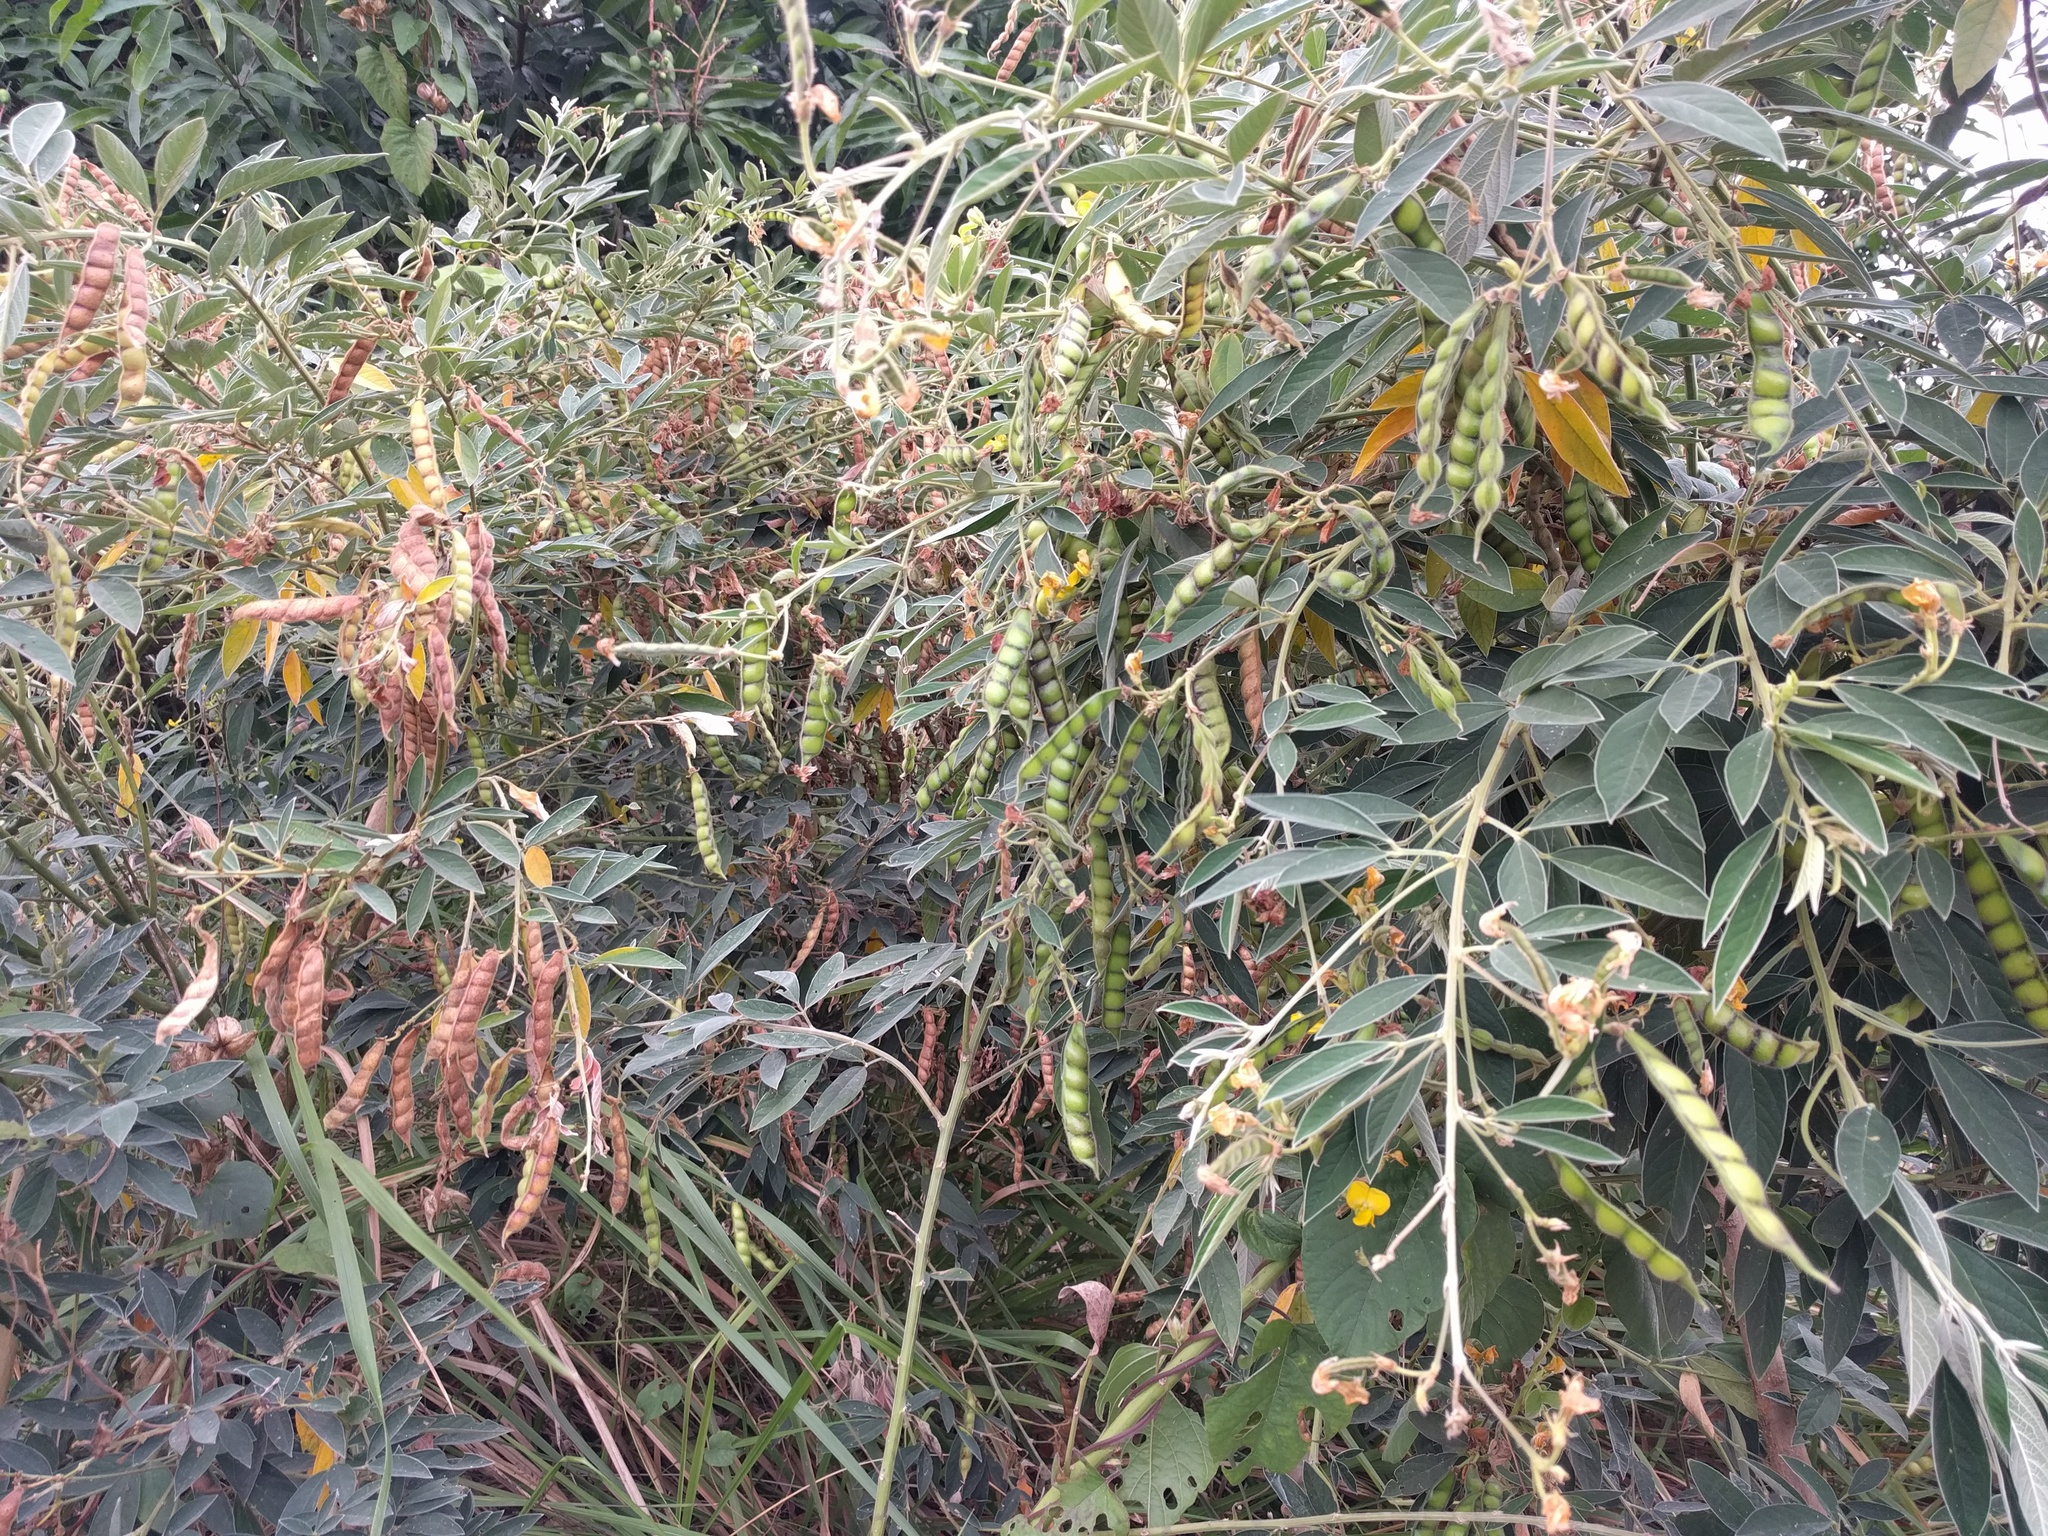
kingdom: Plantae
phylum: Tracheophyta
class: Magnoliopsida
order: Fabales
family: Fabaceae
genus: Cajanus
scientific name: Cajanus cajan
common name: Pigeonpea
